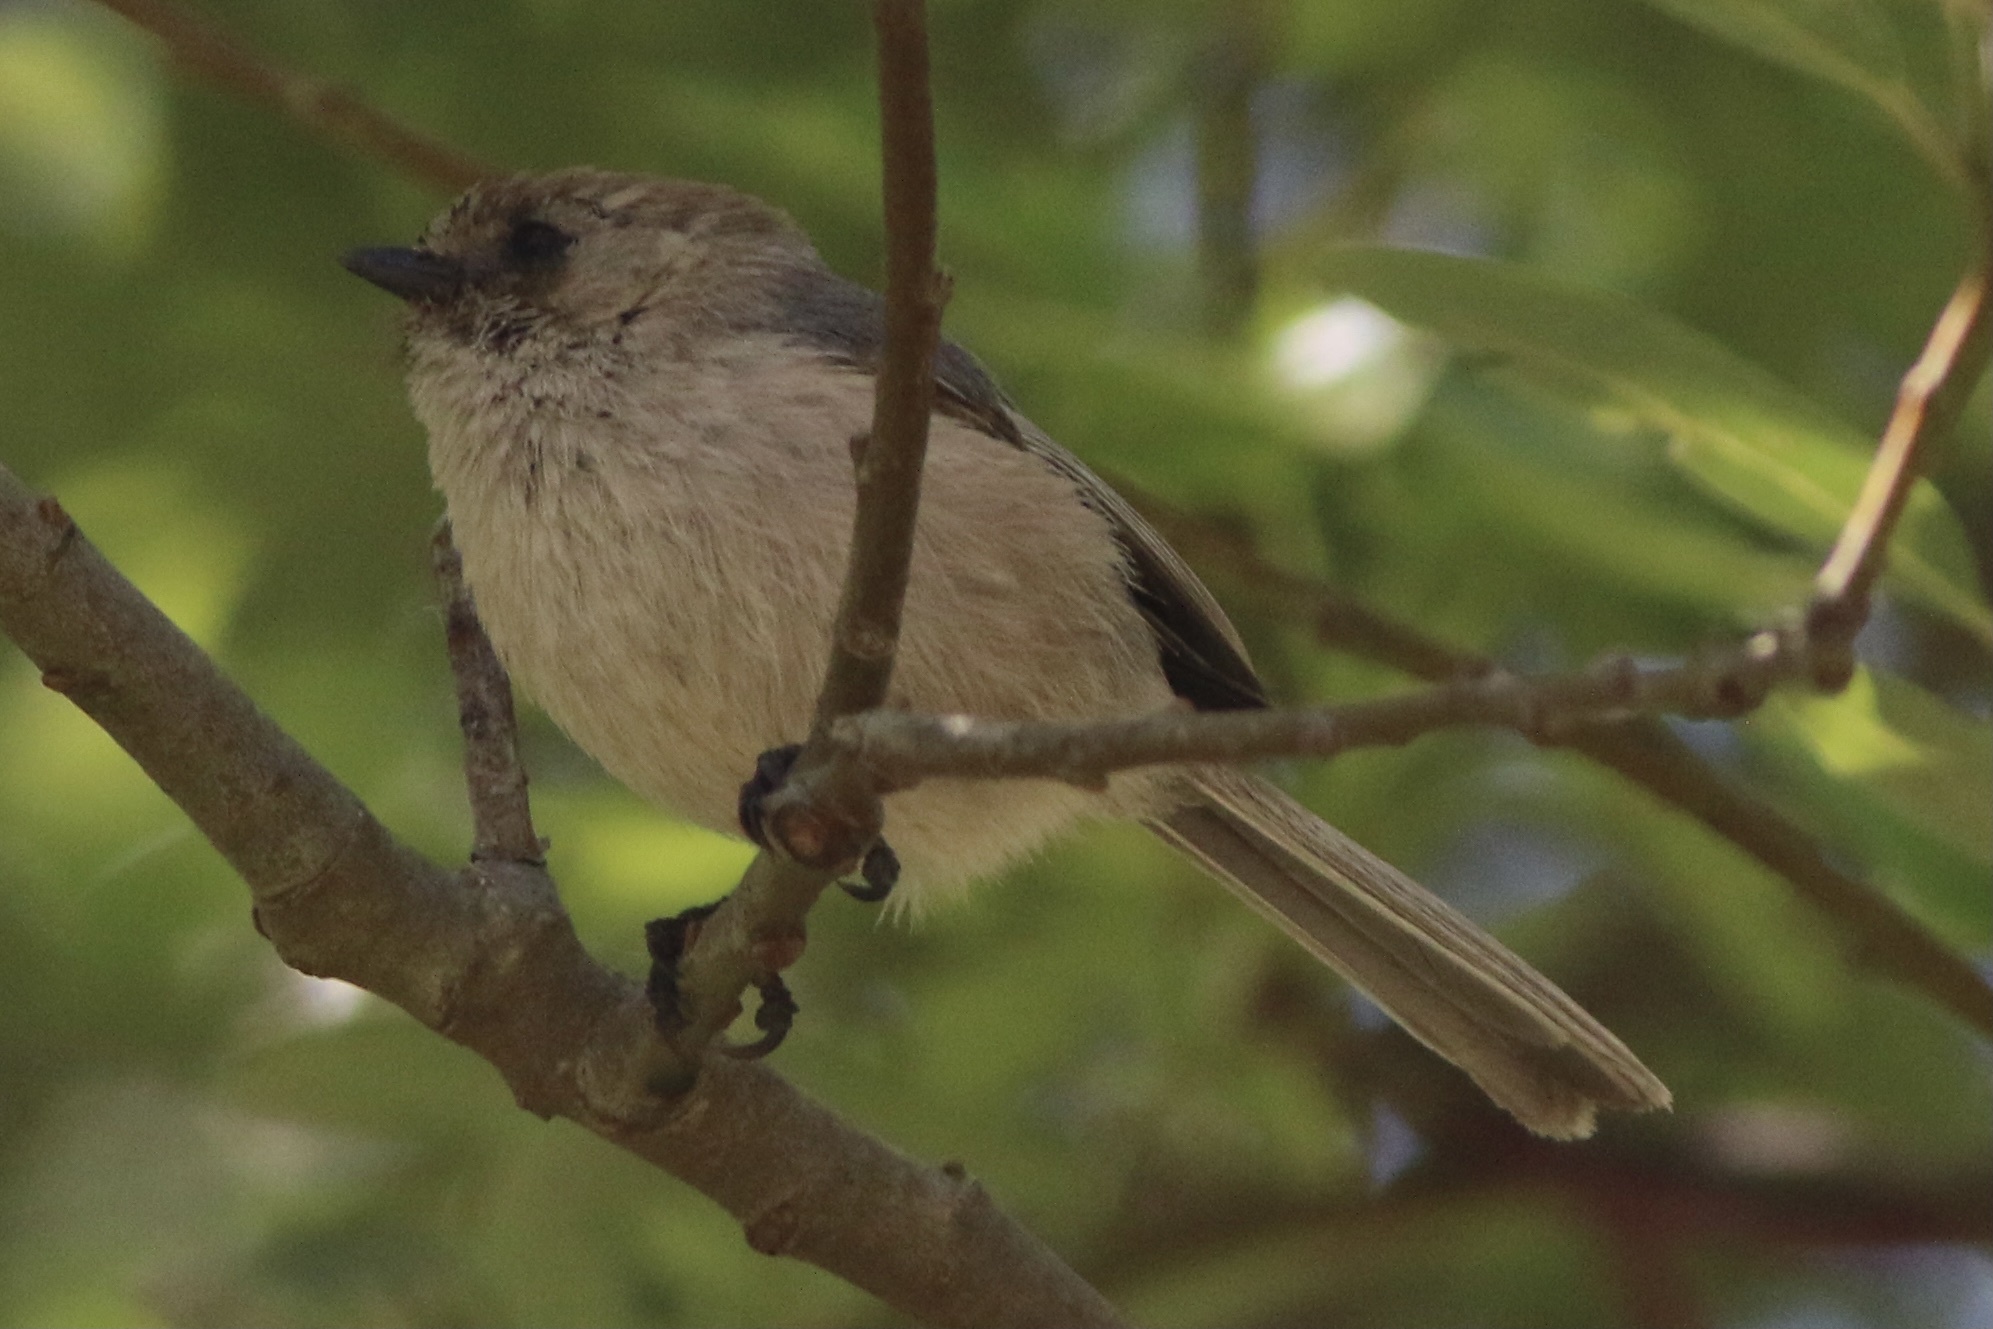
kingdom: Animalia
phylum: Chordata
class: Aves
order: Passeriformes
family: Aegithalidae
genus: Psaltriparus
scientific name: Psaltriparus minimus
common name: American bushtit
